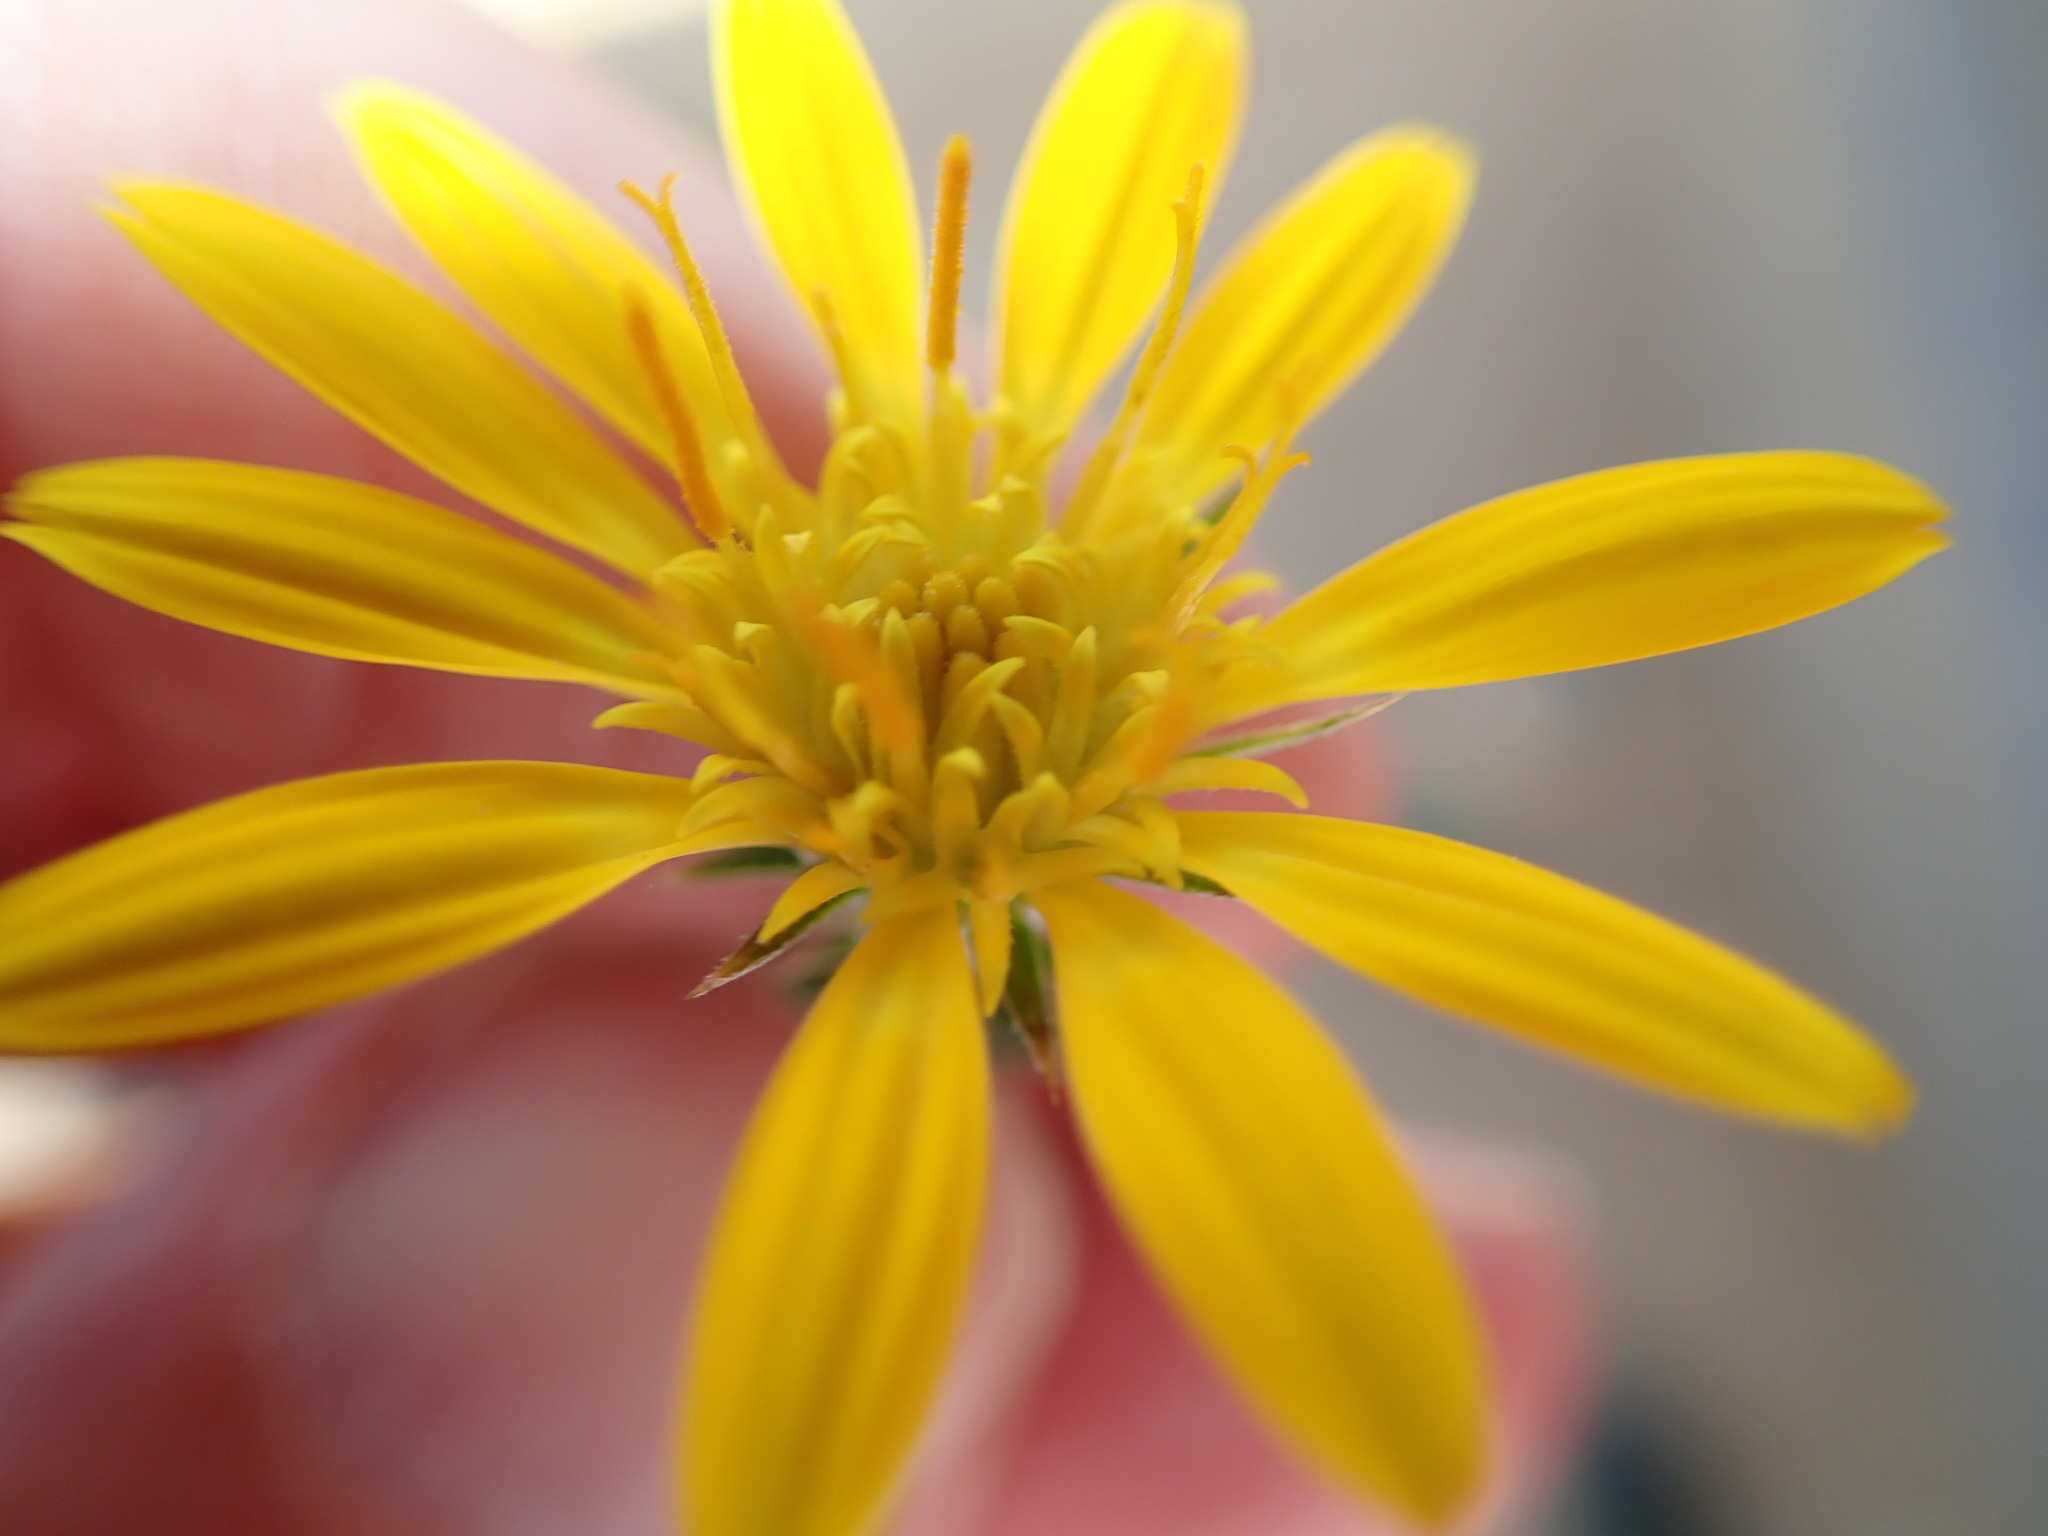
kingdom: Plantae
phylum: Tracheophyta
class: Magnoliopsida
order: Asterales
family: Asteraceae
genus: Gorteria
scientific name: Gorteria alienata
